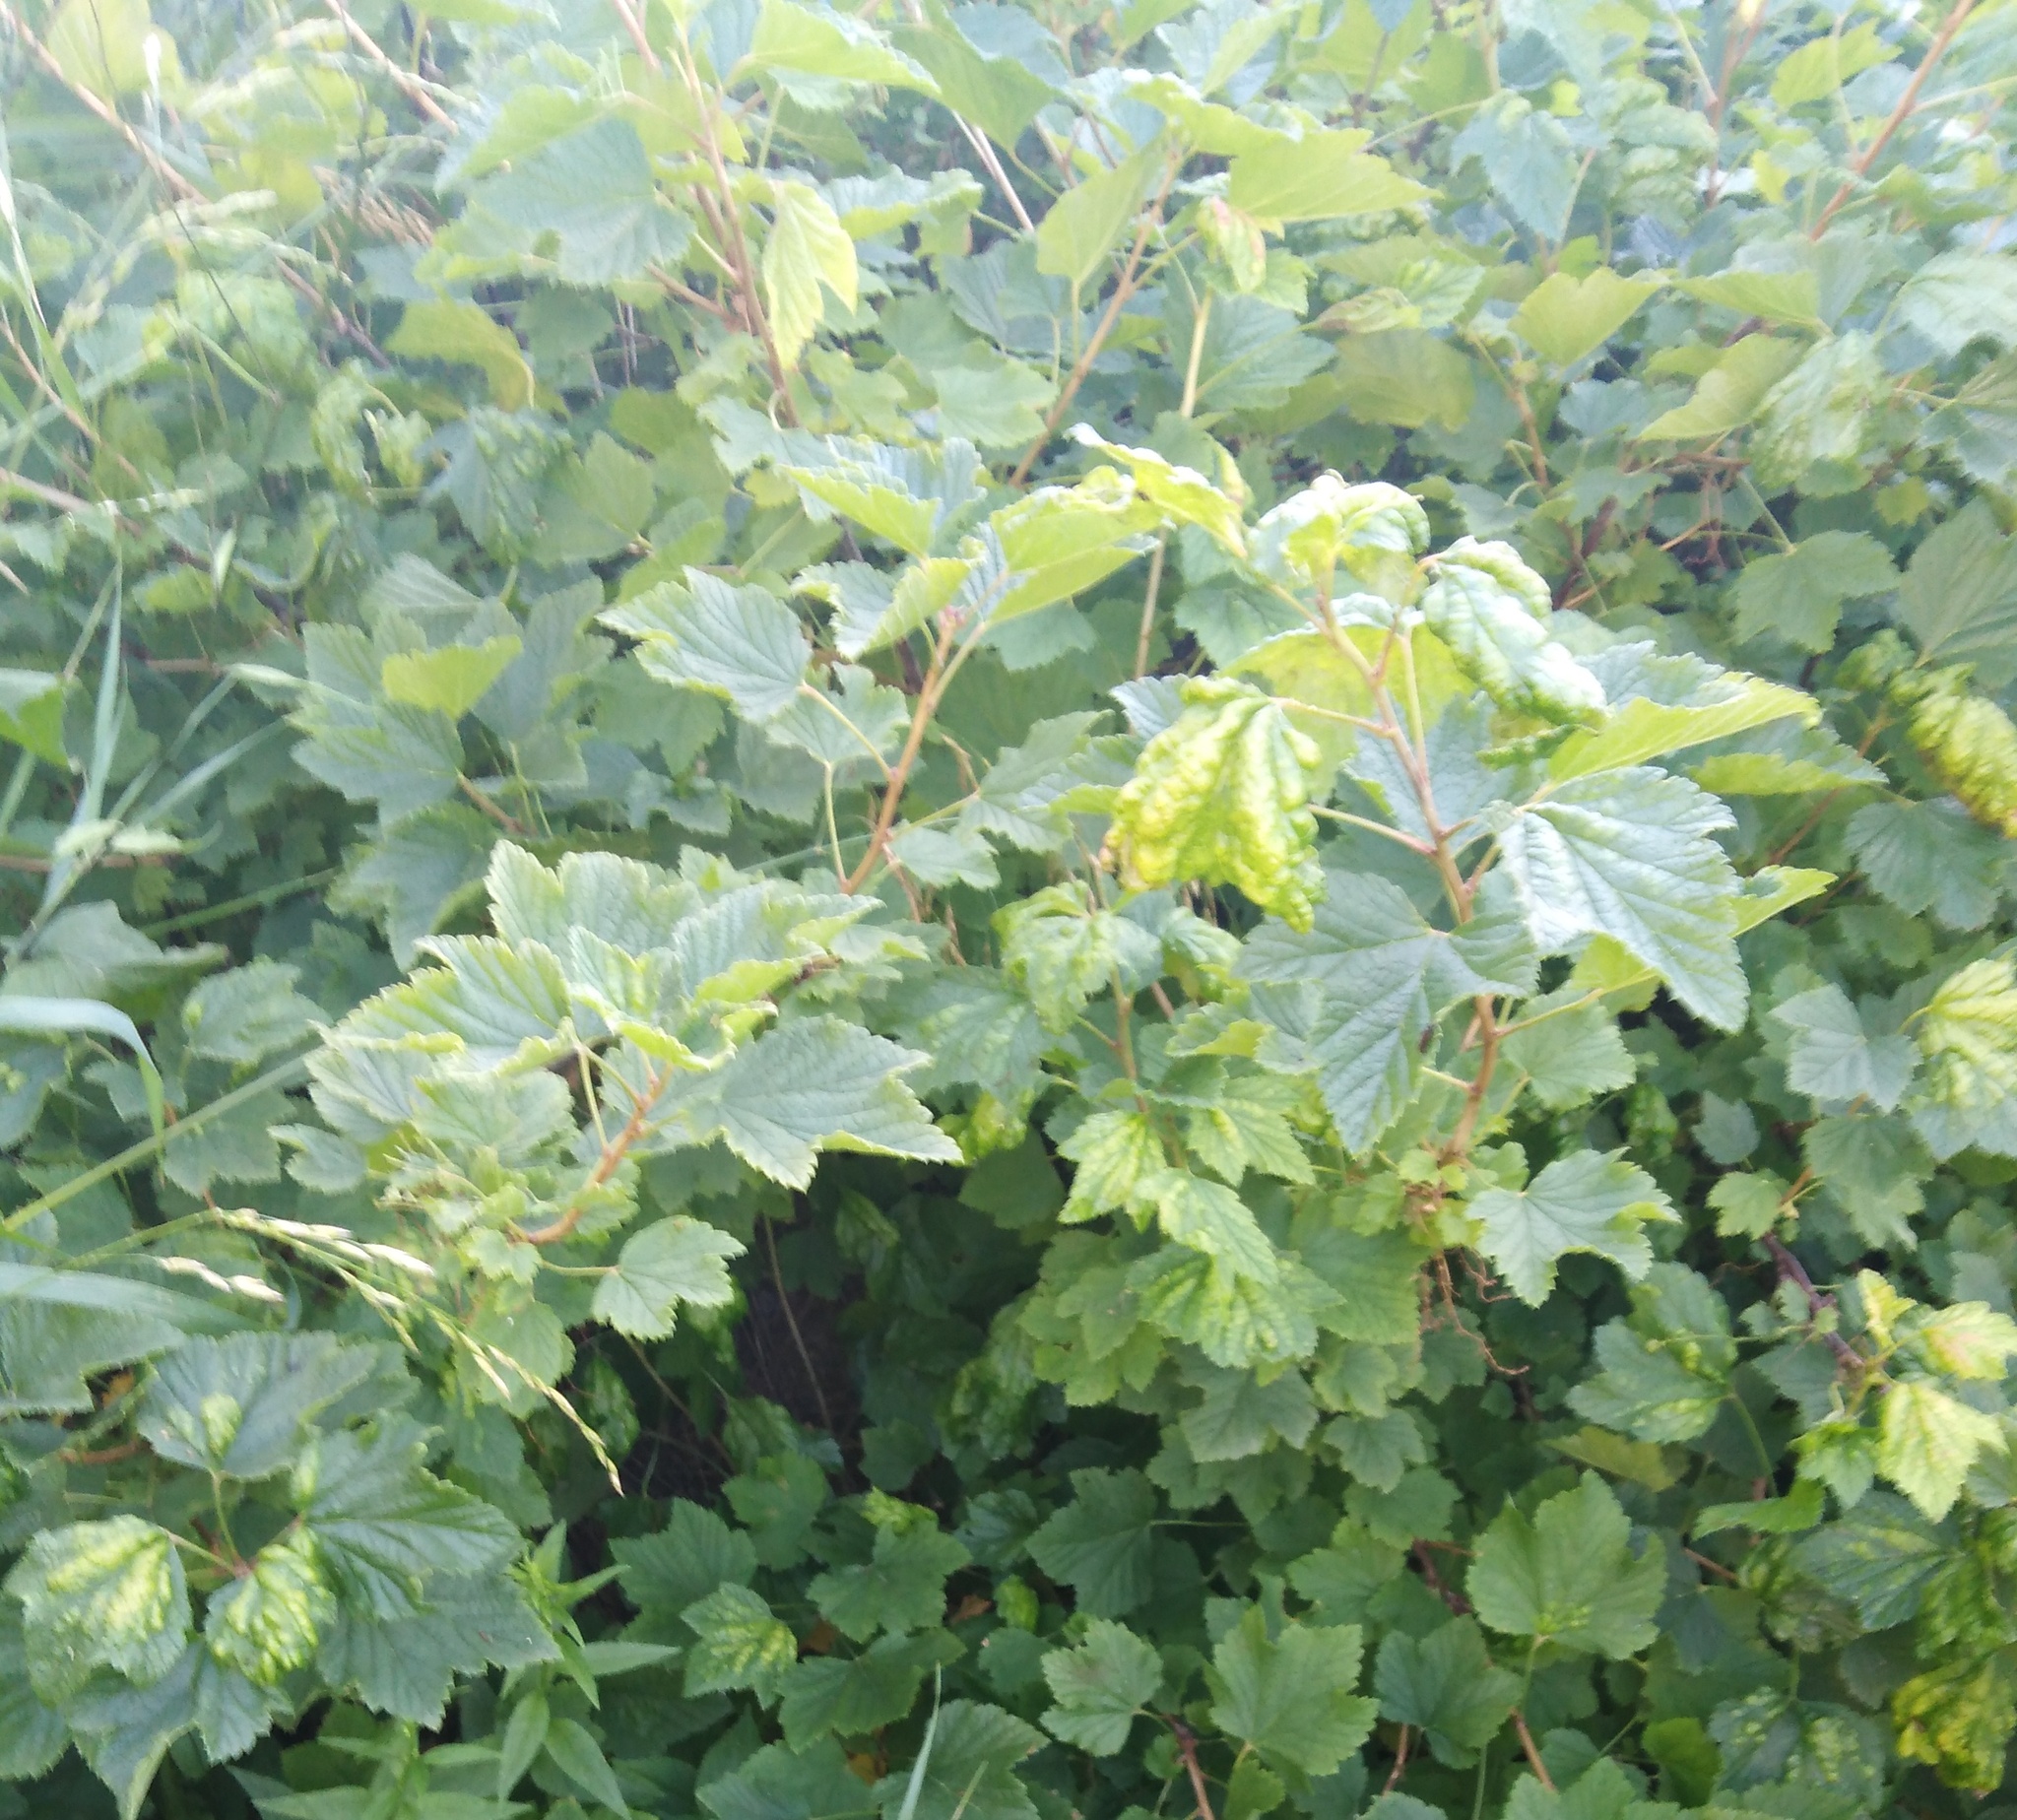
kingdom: Plantae
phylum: Tracheophyta
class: Magnoliopsida
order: Saxifragales
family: Grossulariaceae
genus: Ribes
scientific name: Ribes nigrum
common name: Black currant
